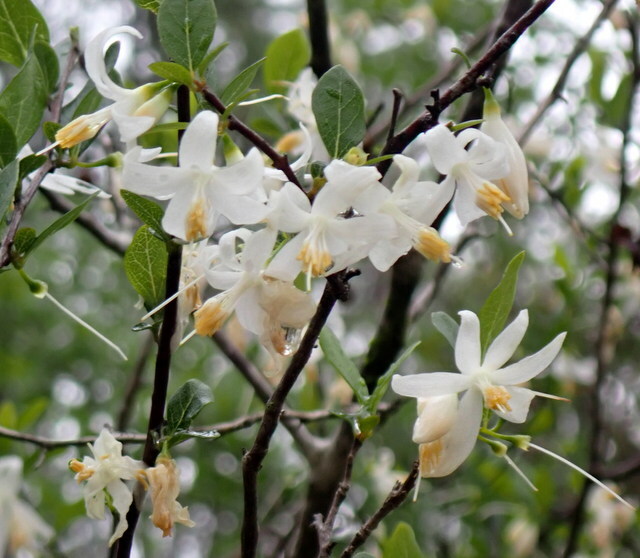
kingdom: Plantae
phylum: Tracheophyta
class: Magnoliopsida
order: Ericales
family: Styracaceae
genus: Styrax
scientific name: Styrax americanus
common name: American snowbell
